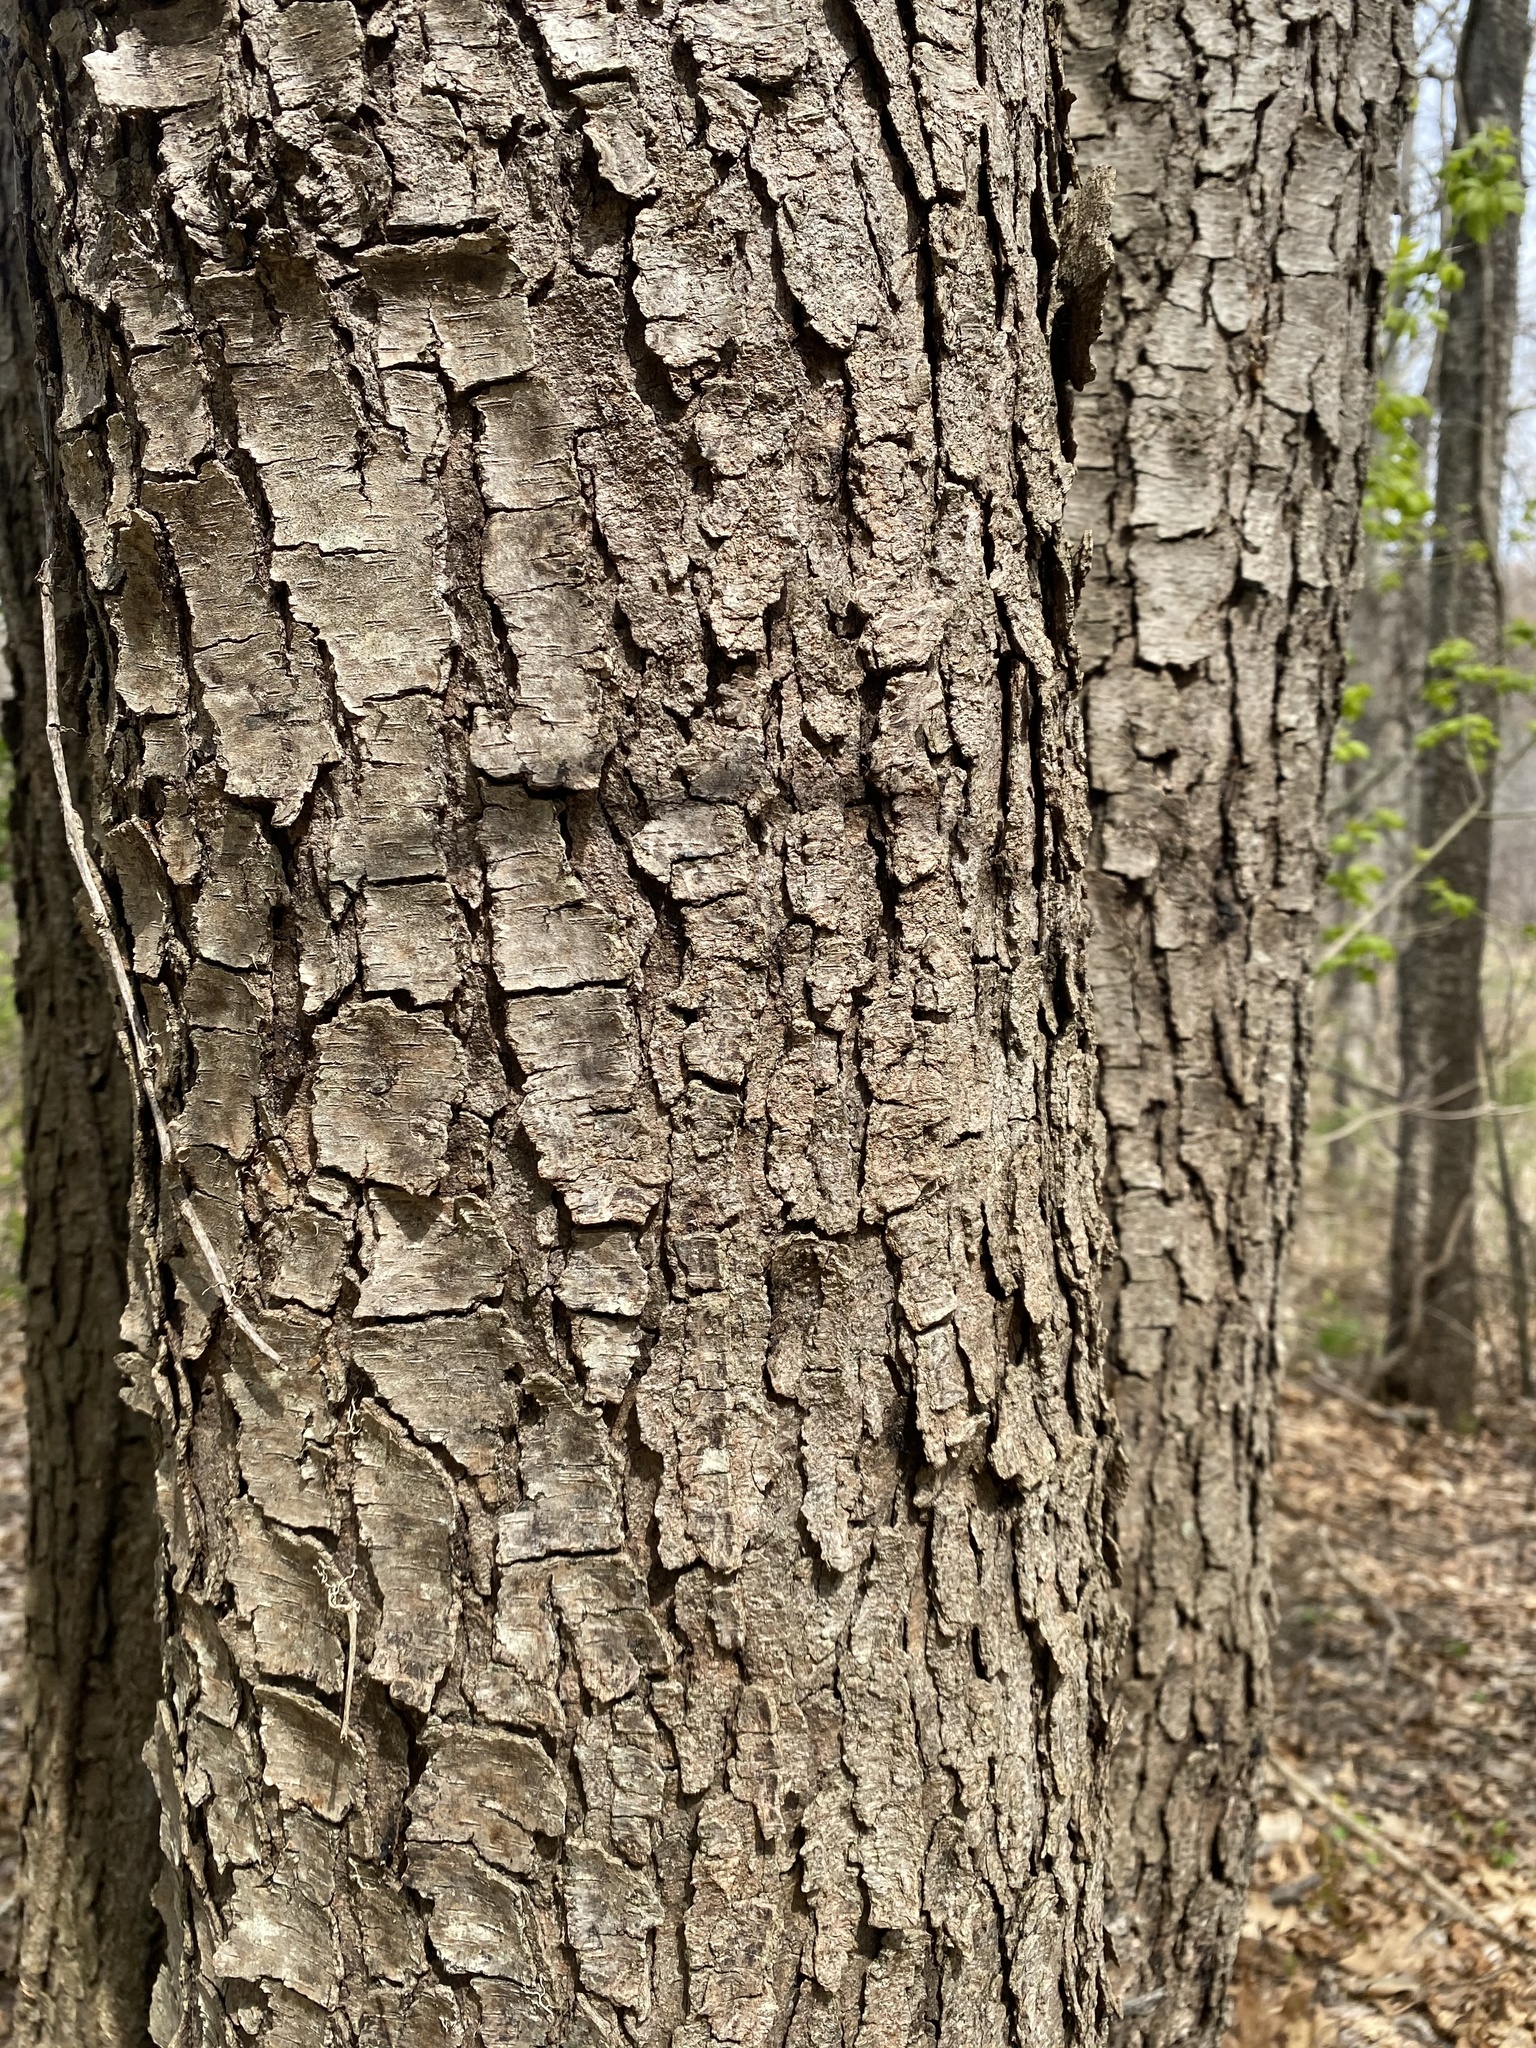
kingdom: Plantae
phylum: Tracheophyta
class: Magnoliopsida
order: Rosales
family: Rosaceae
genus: Prunus
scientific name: Prunus serotina
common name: Black cherry
